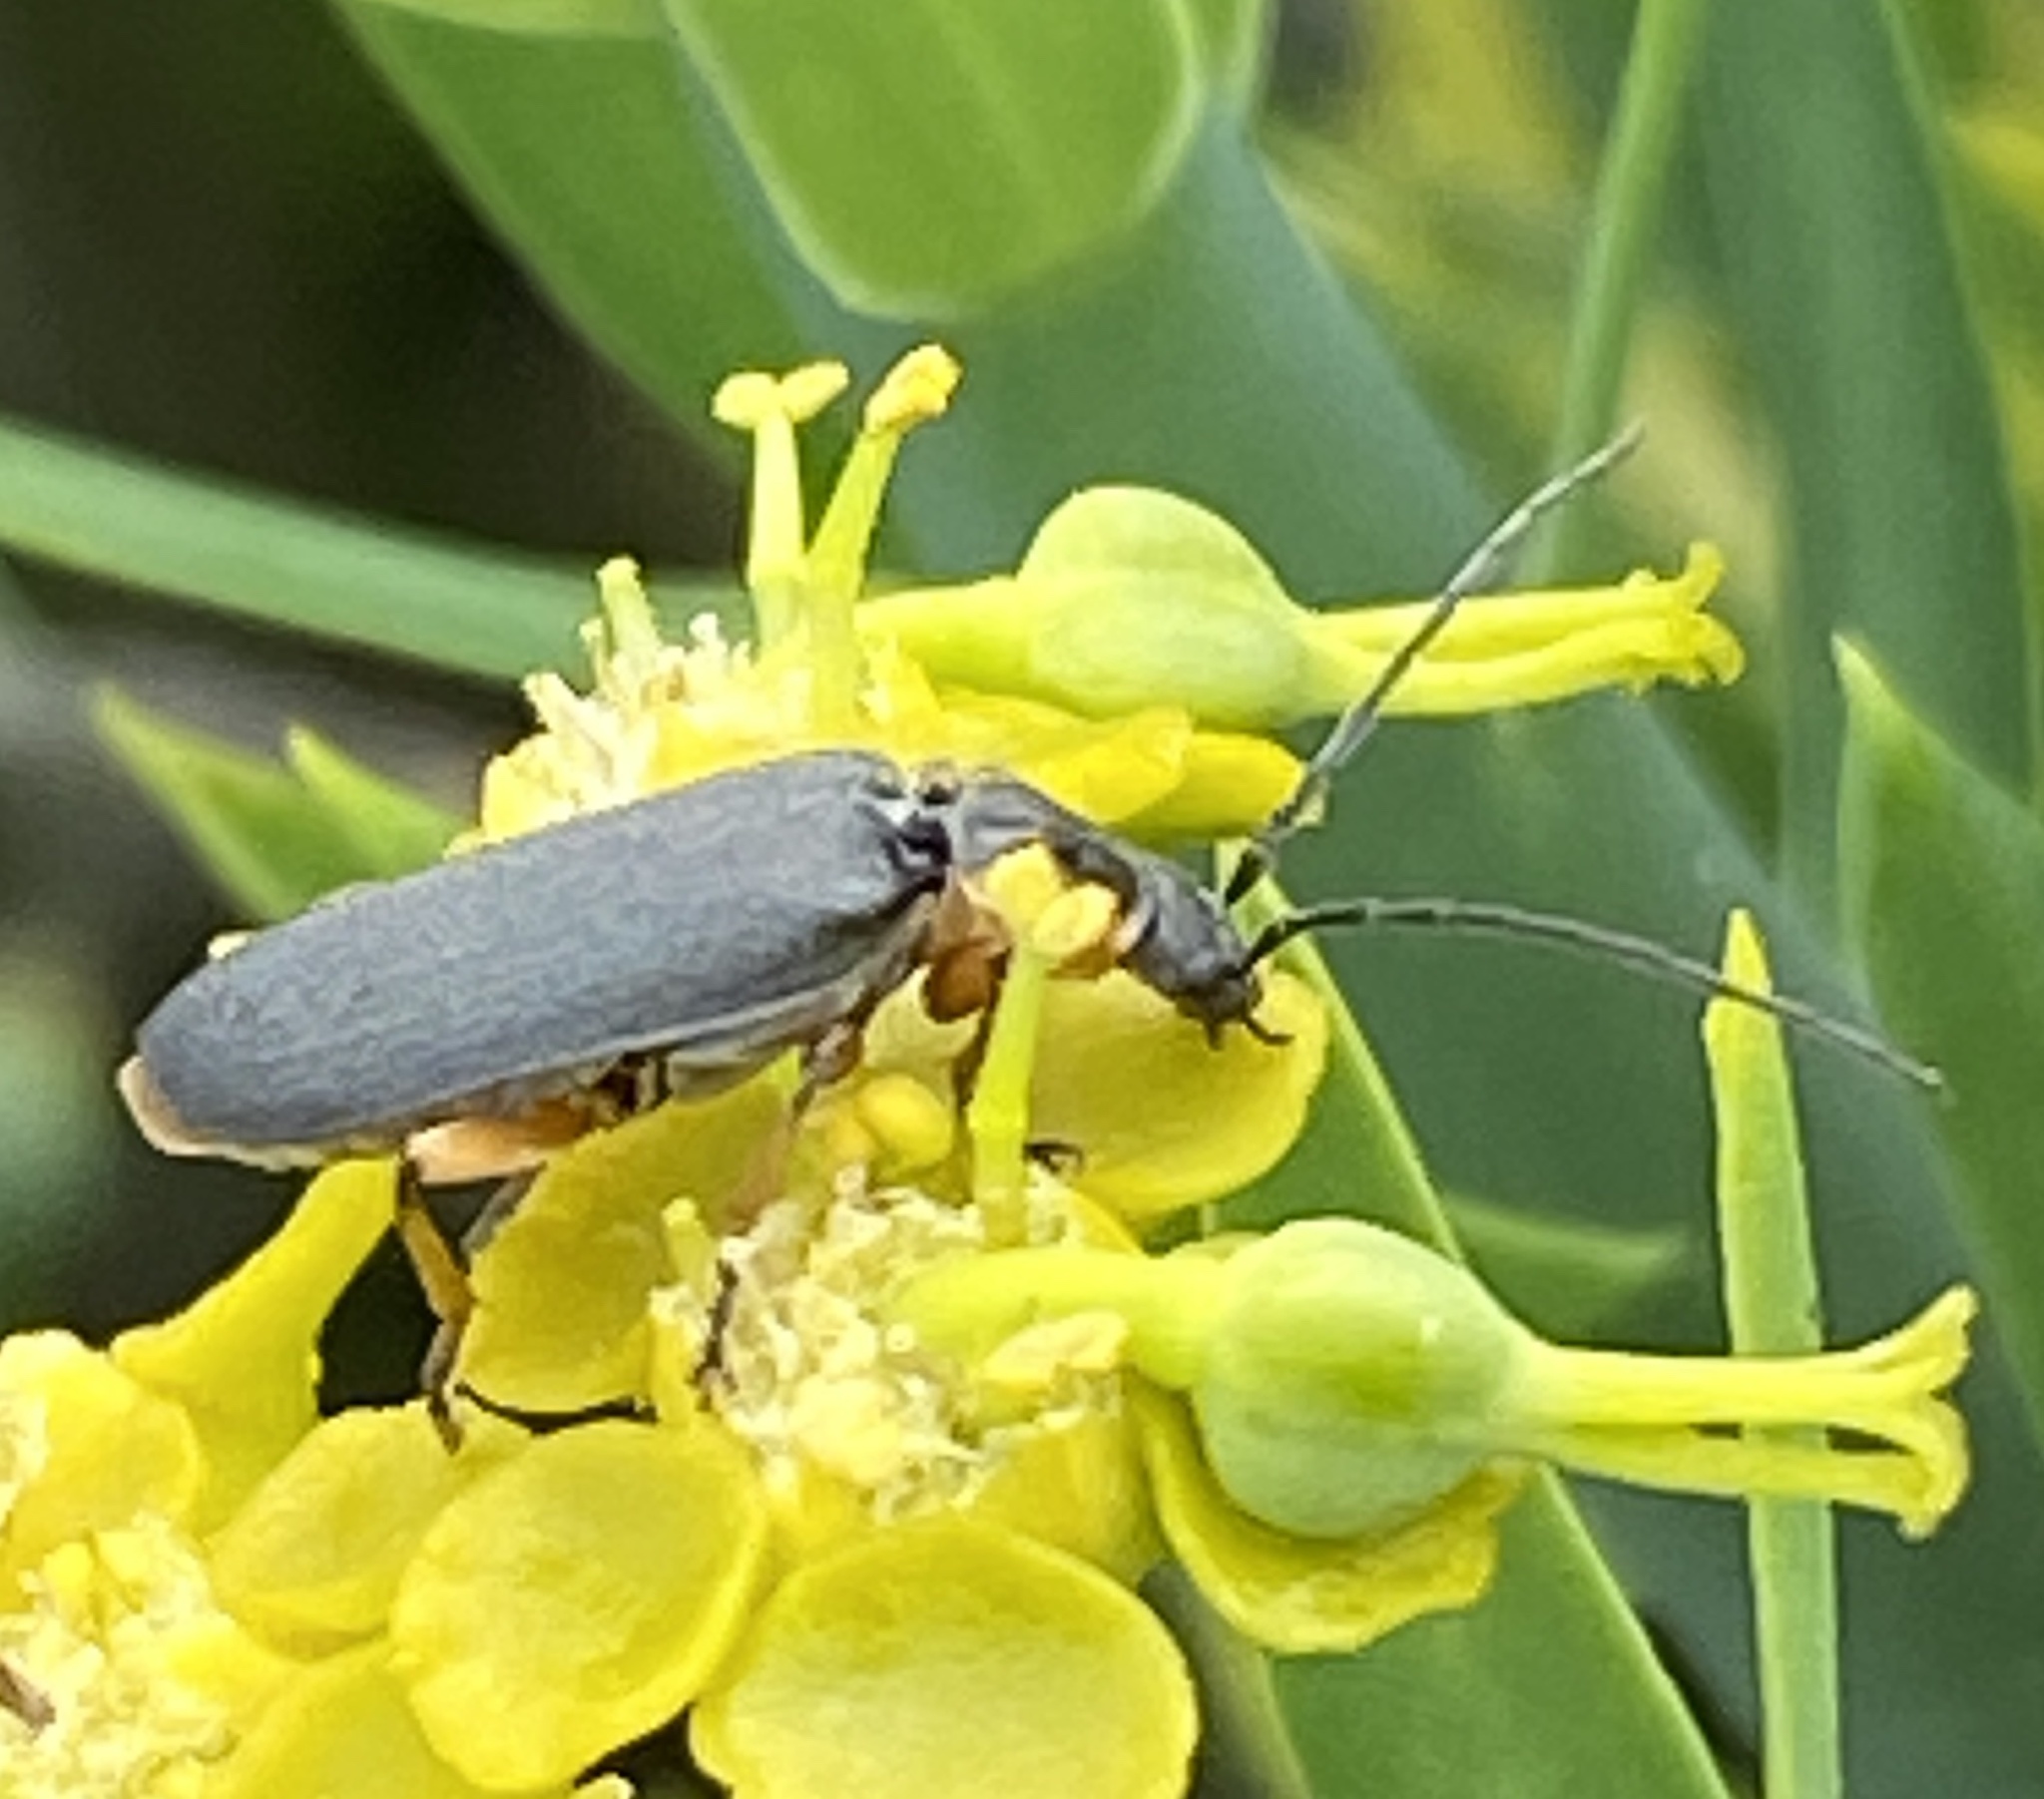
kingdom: Animalia
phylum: Arthropoda
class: Insecta
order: Coleoptera
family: Cantharidae
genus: Afronycha
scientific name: Afronycha
